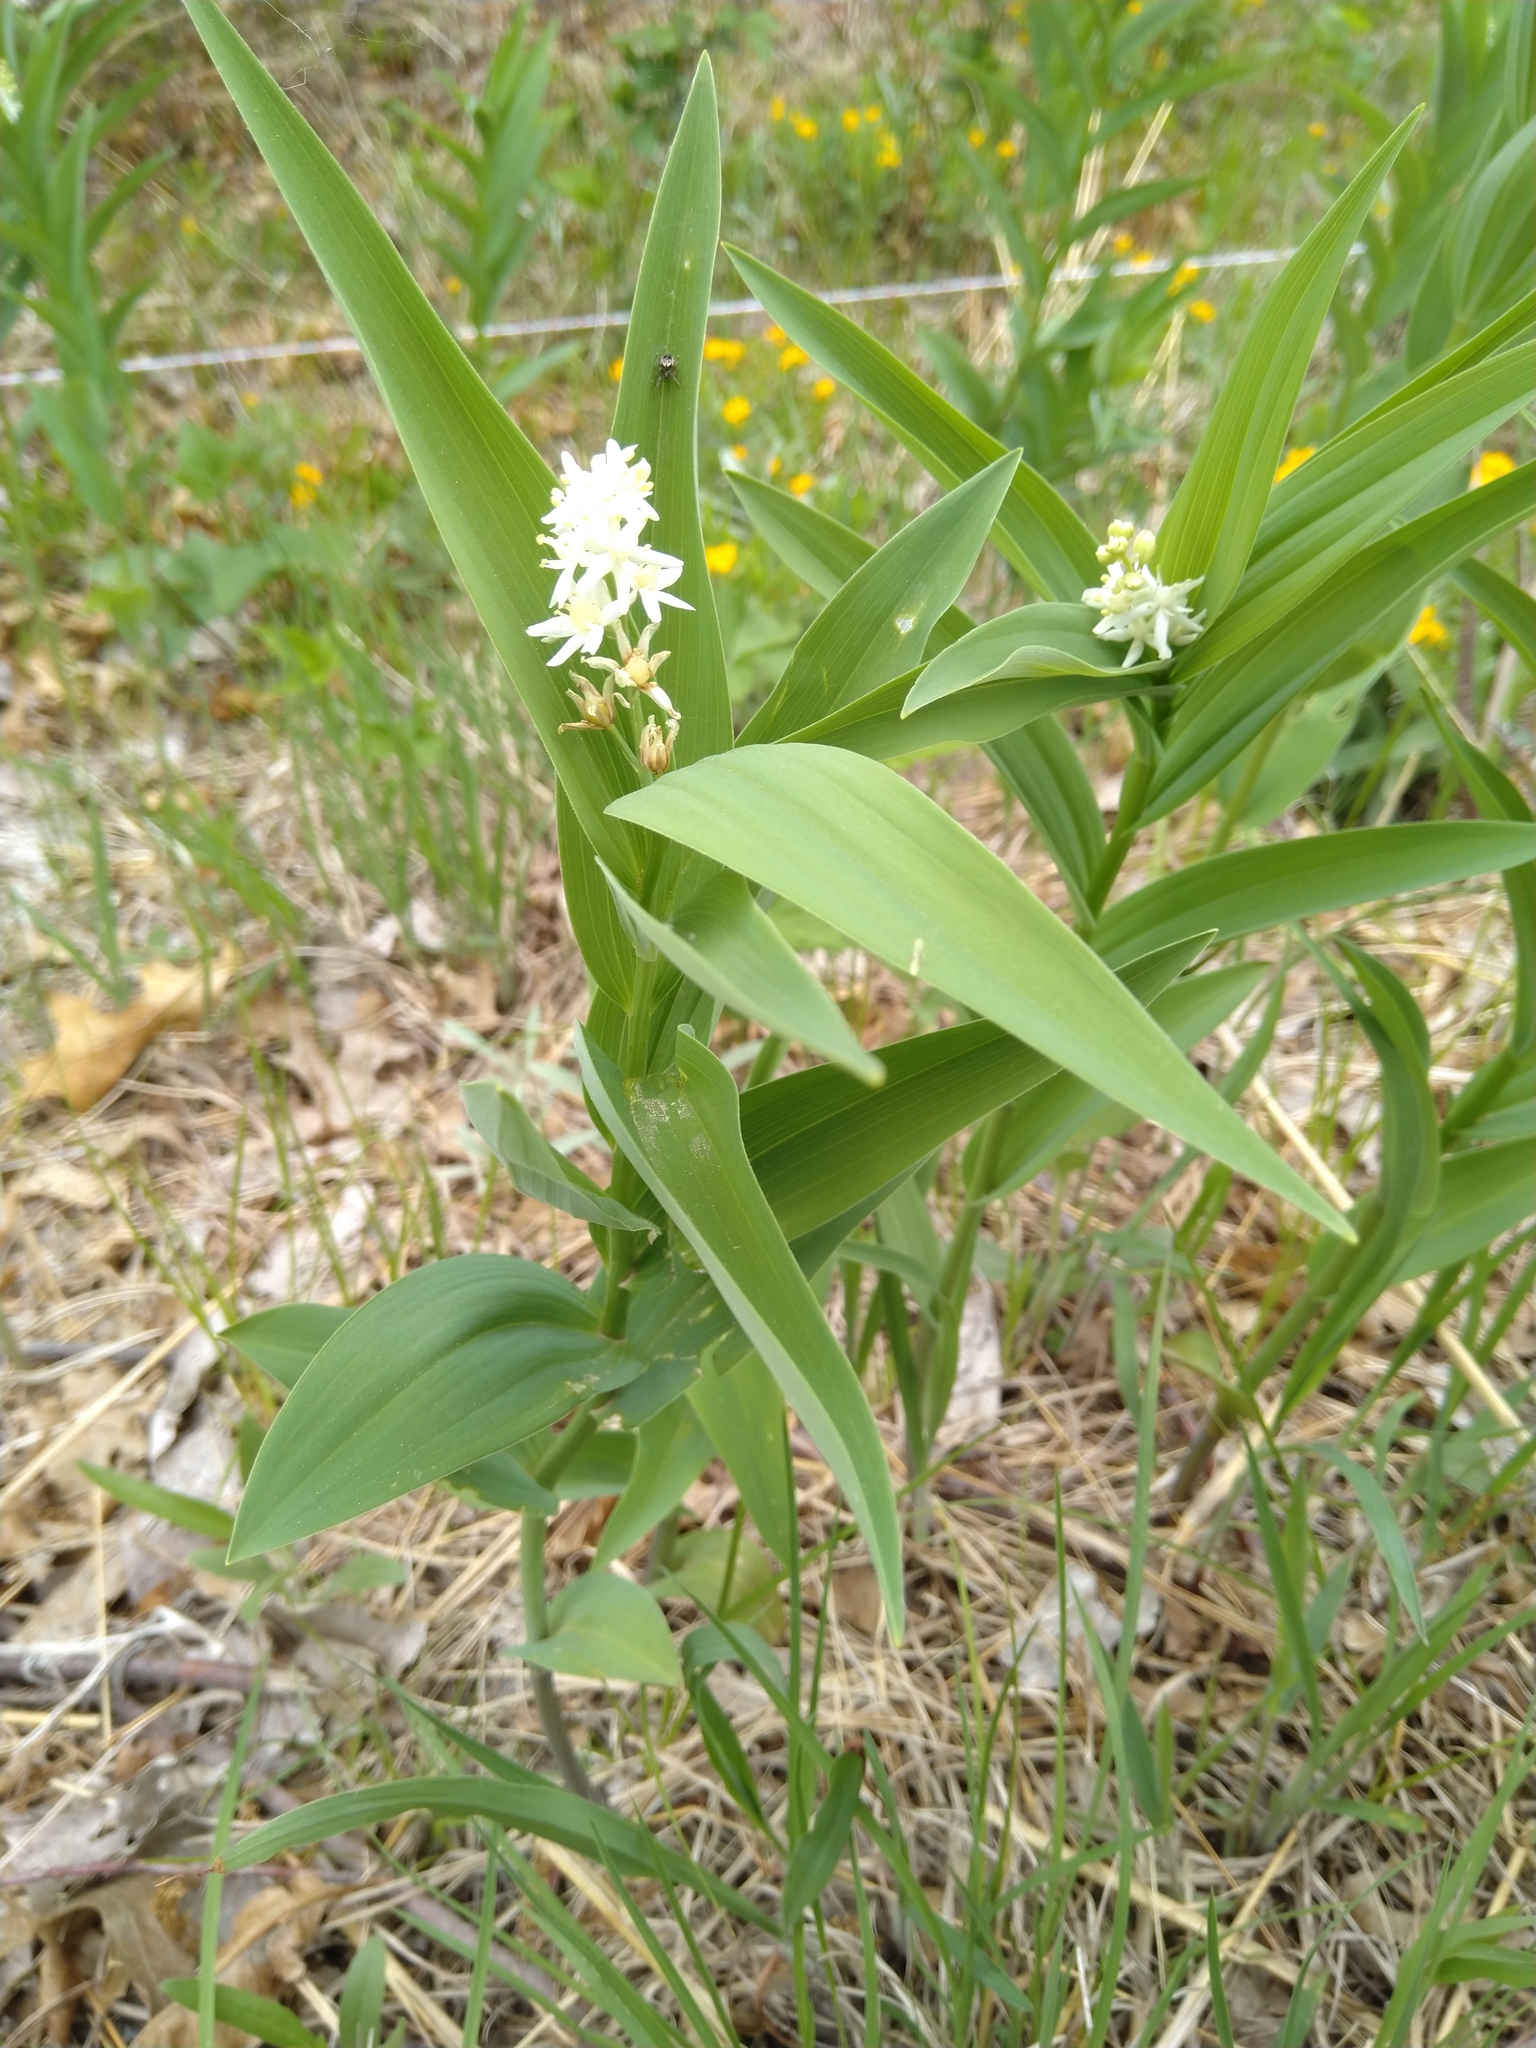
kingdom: Plantae
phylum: Tracheophyta
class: Liliopsida
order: Asparagales
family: Asparagaceae
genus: Maianthemum
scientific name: Maianthemum stellatum
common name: Little false solomon's seal
